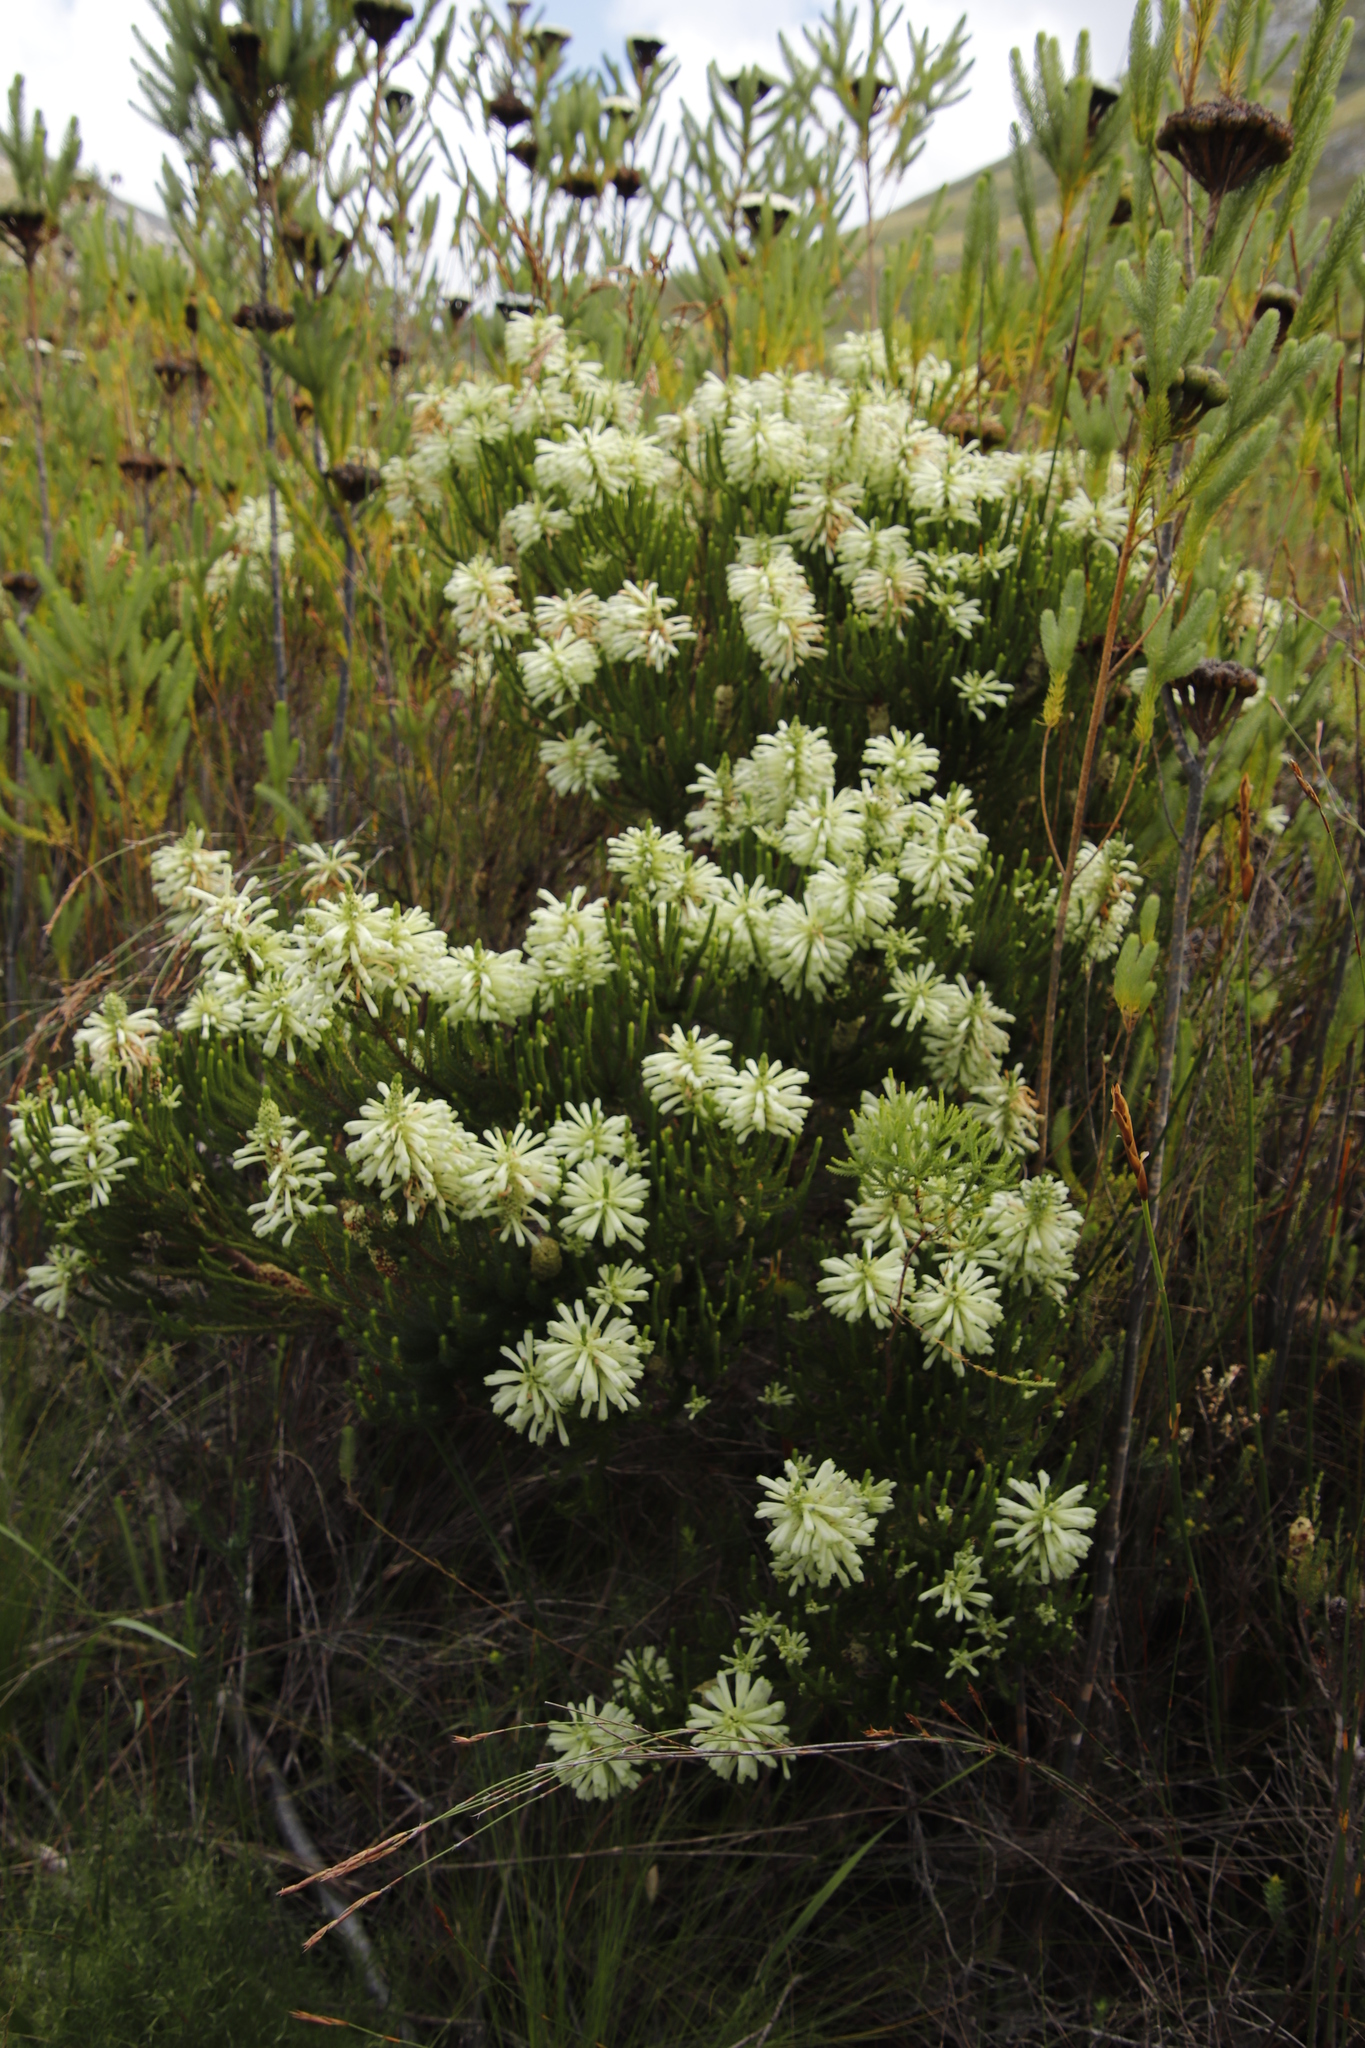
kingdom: Plantae
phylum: Tracheophyta
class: Magnoliopsida
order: Ericales
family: Ericaceae
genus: Erica
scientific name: Erica sessiliflora
